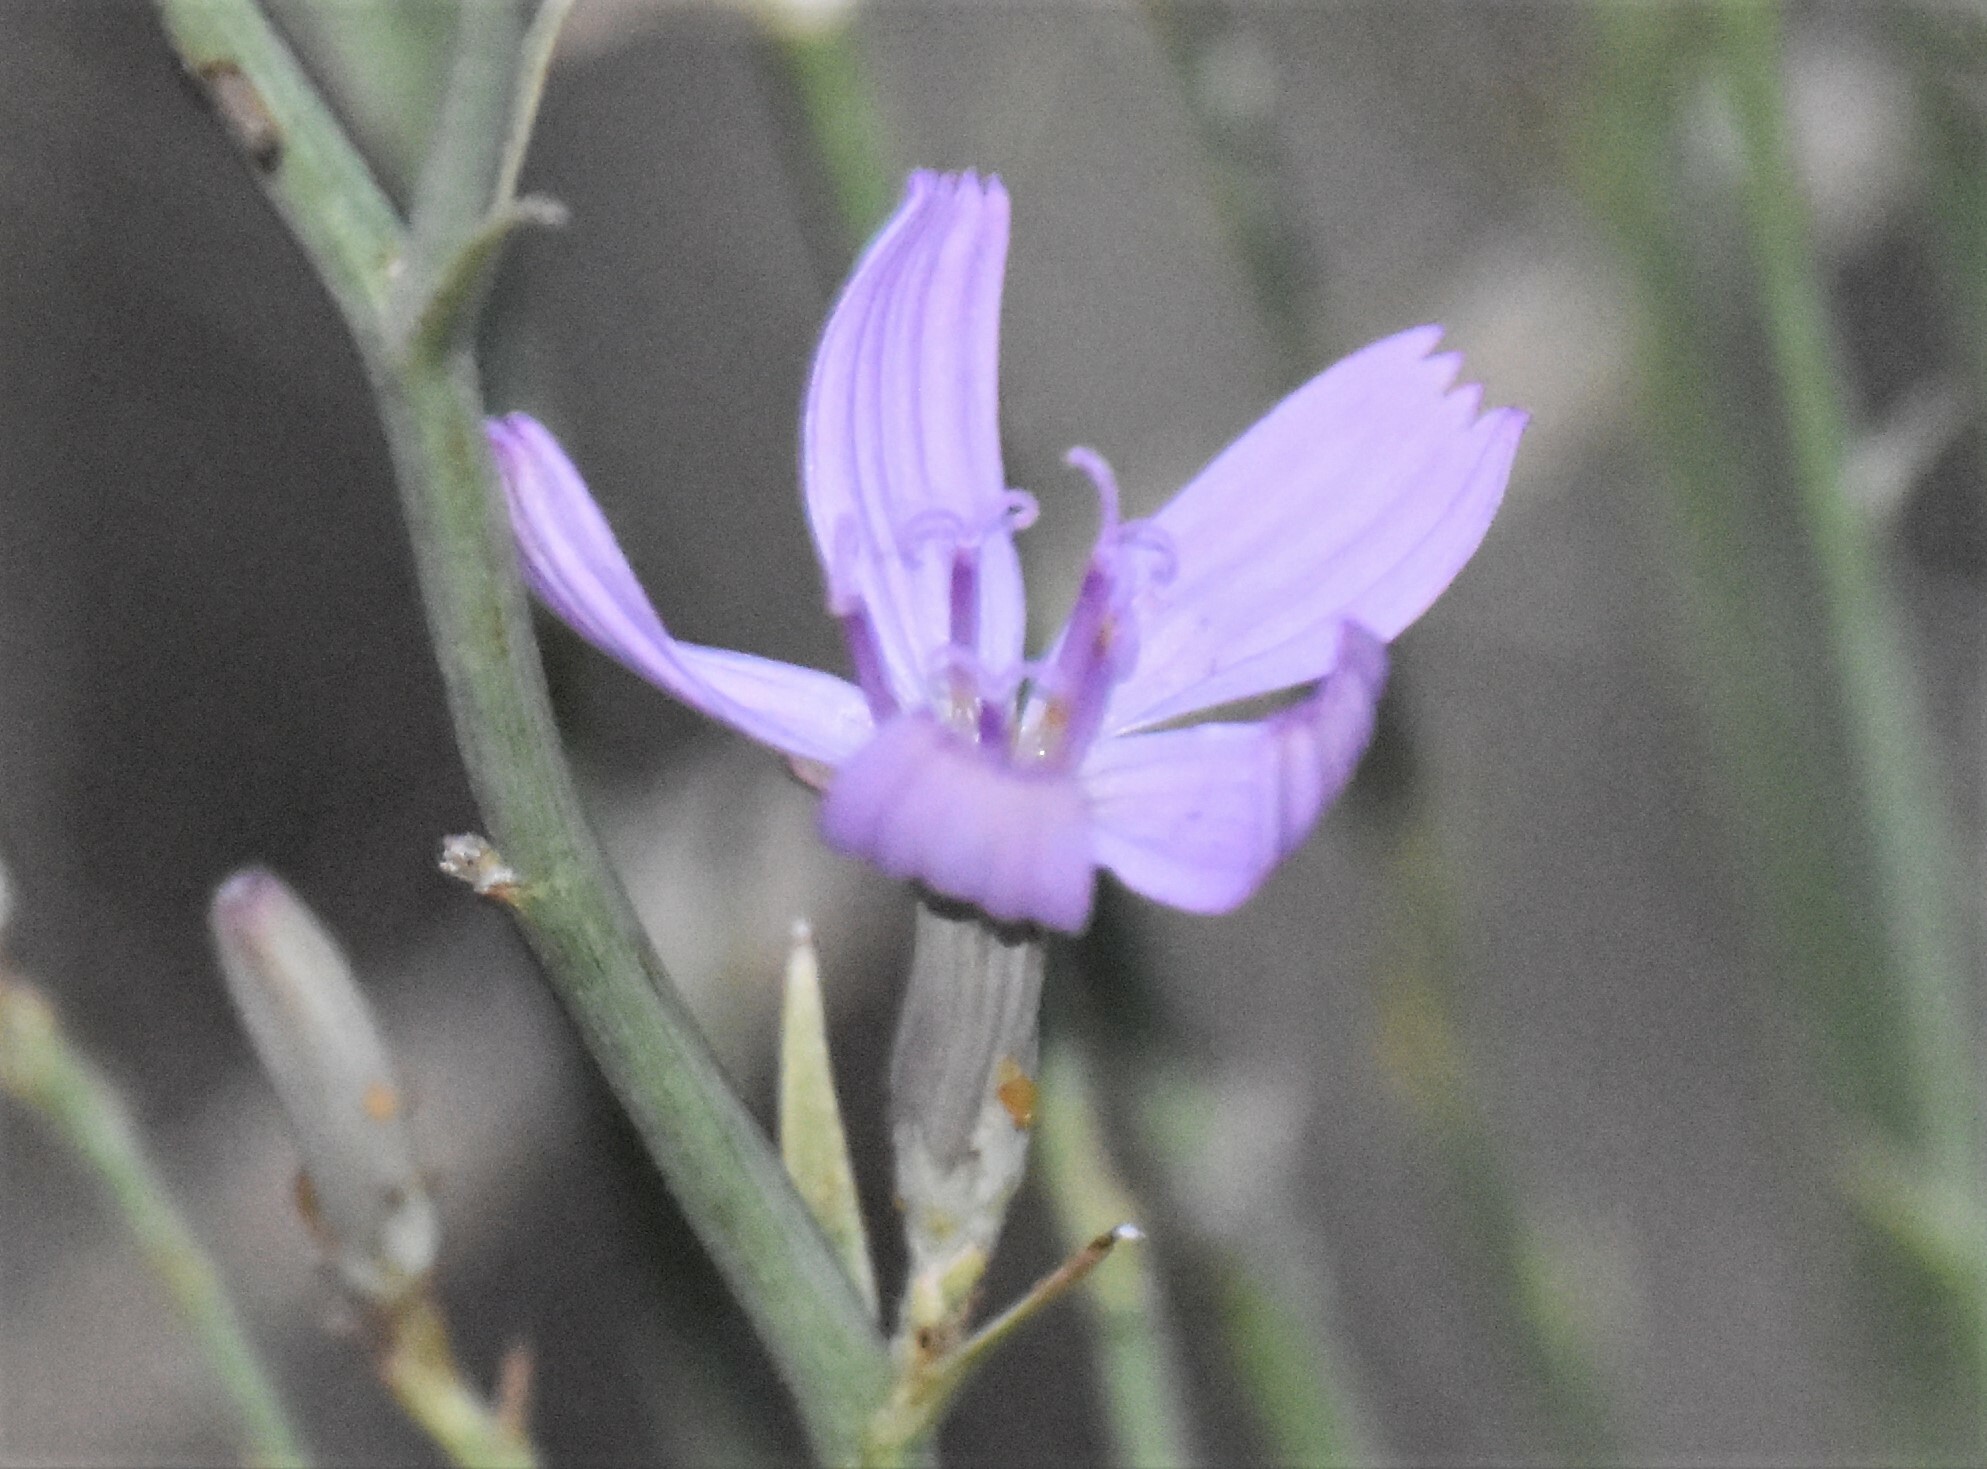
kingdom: Plantae
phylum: Tracheophyta
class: Magnoliopsida
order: Asterales
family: Asteraceae
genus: Lygodesmia
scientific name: Lygodesmia juncea
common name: Common skeletonweed
